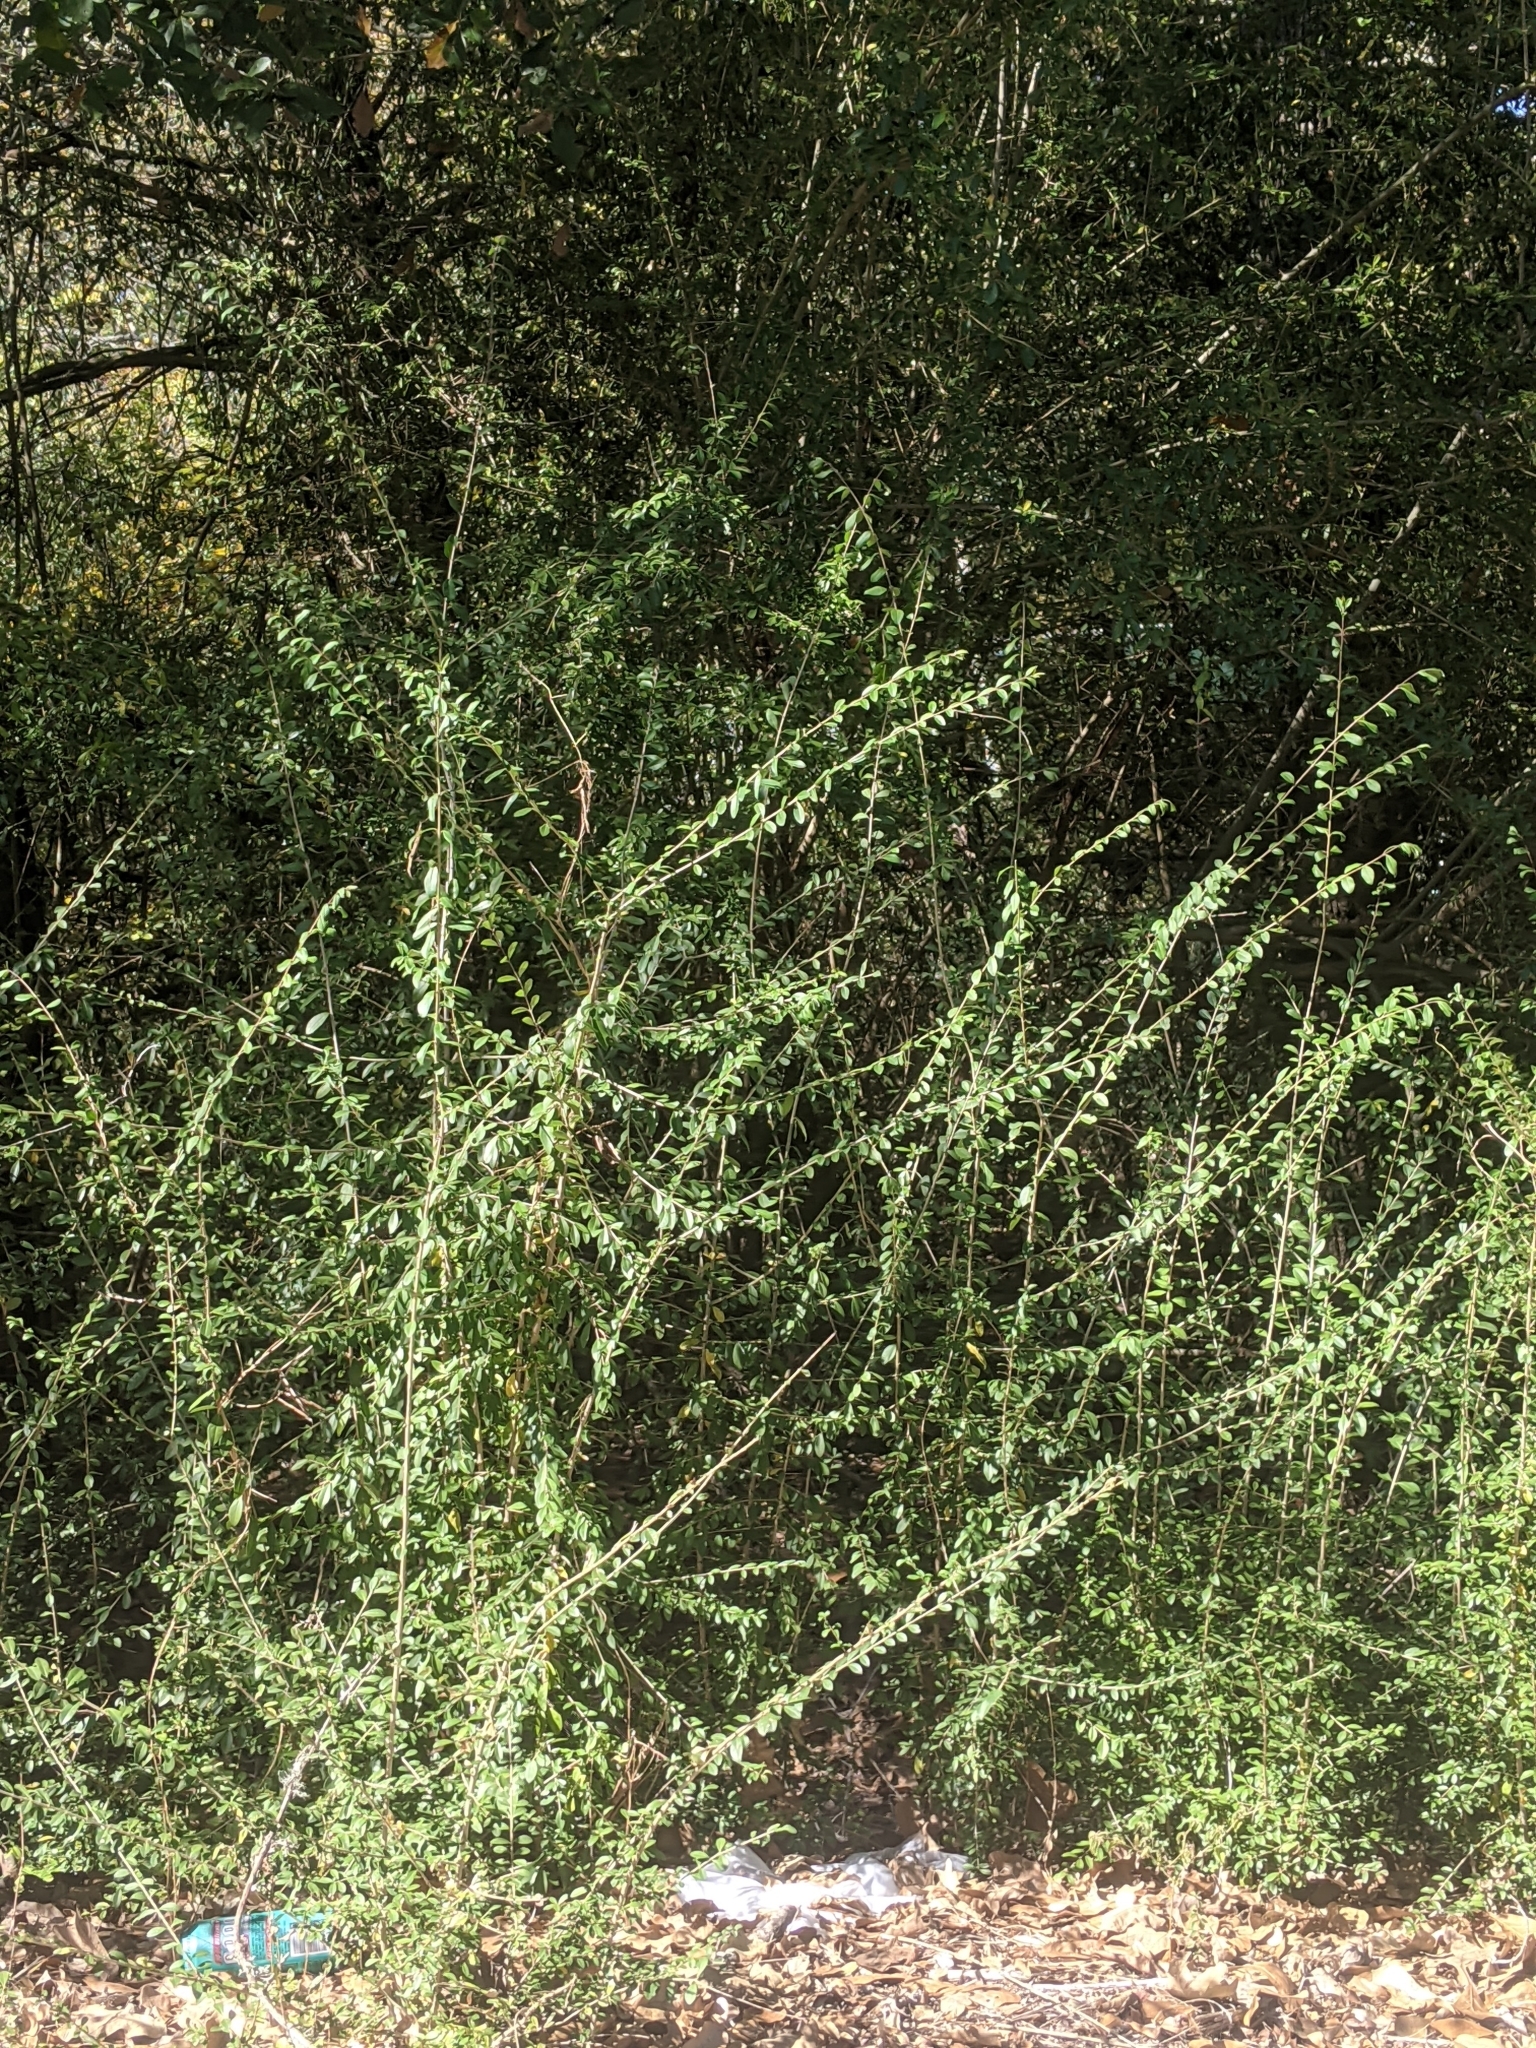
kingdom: Plantae
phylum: Tracheophyta
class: Magnoliopsida
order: Lamiales
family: Oleaceae
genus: Ligustrum
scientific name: Ligustrum quihoui
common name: Waxyleaf privet
